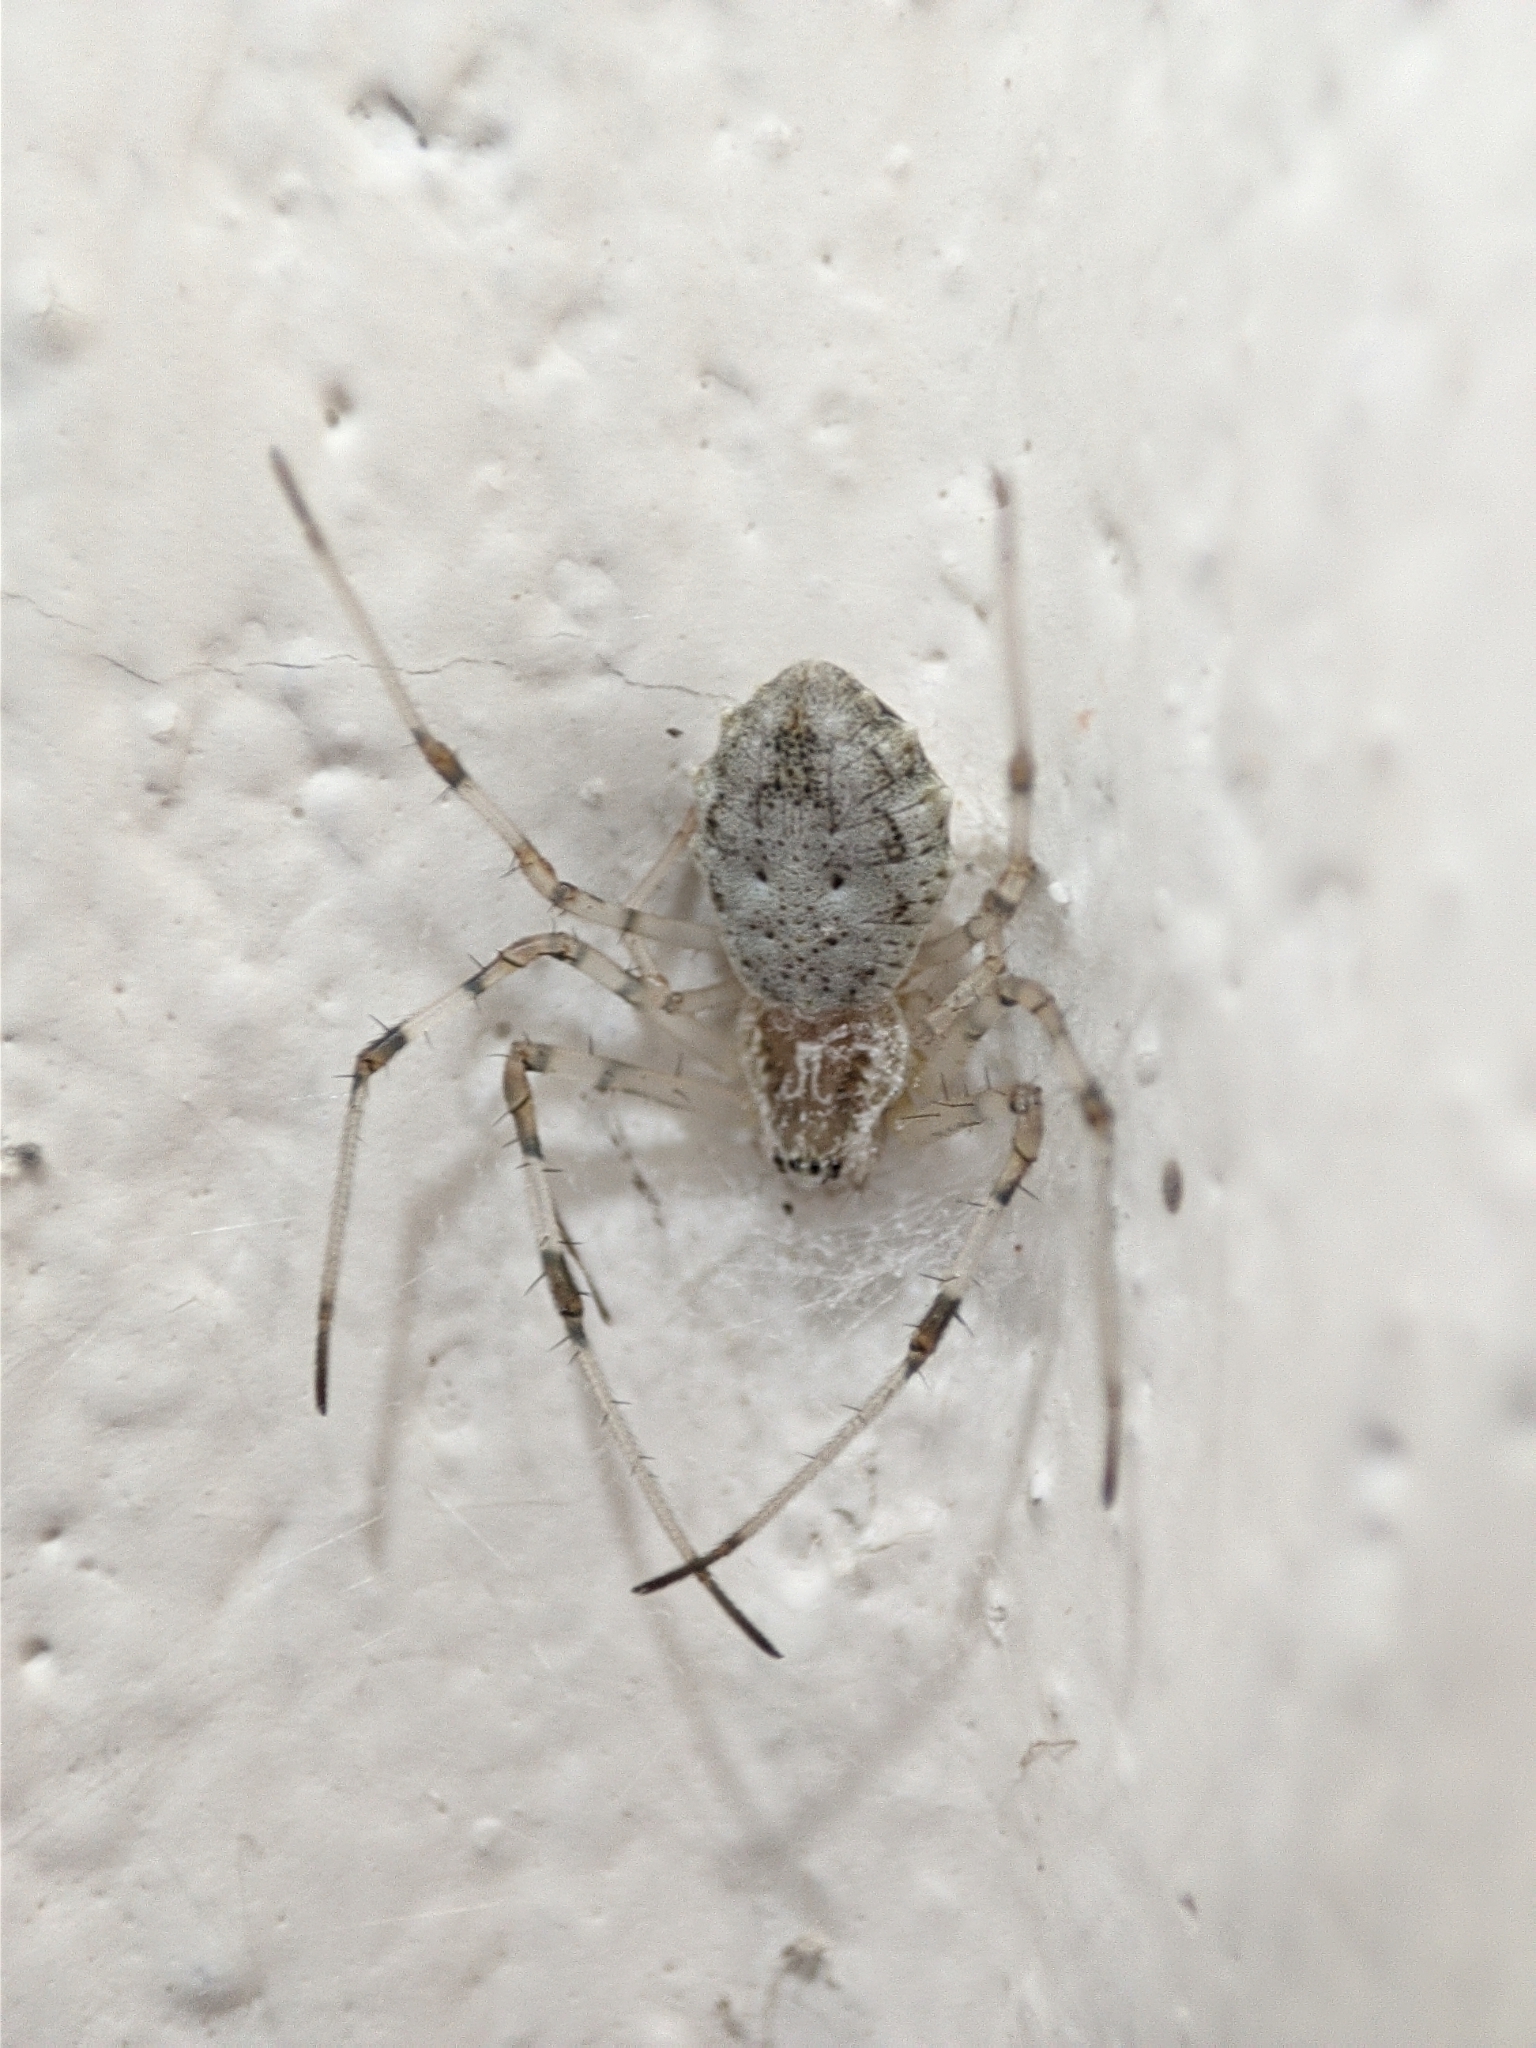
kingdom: Animalia
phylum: Arthropoda
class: Arachnida
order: Araneae
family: Araneidae
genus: Herennia
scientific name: Herennia multipuncta
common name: Spotted coin spider
